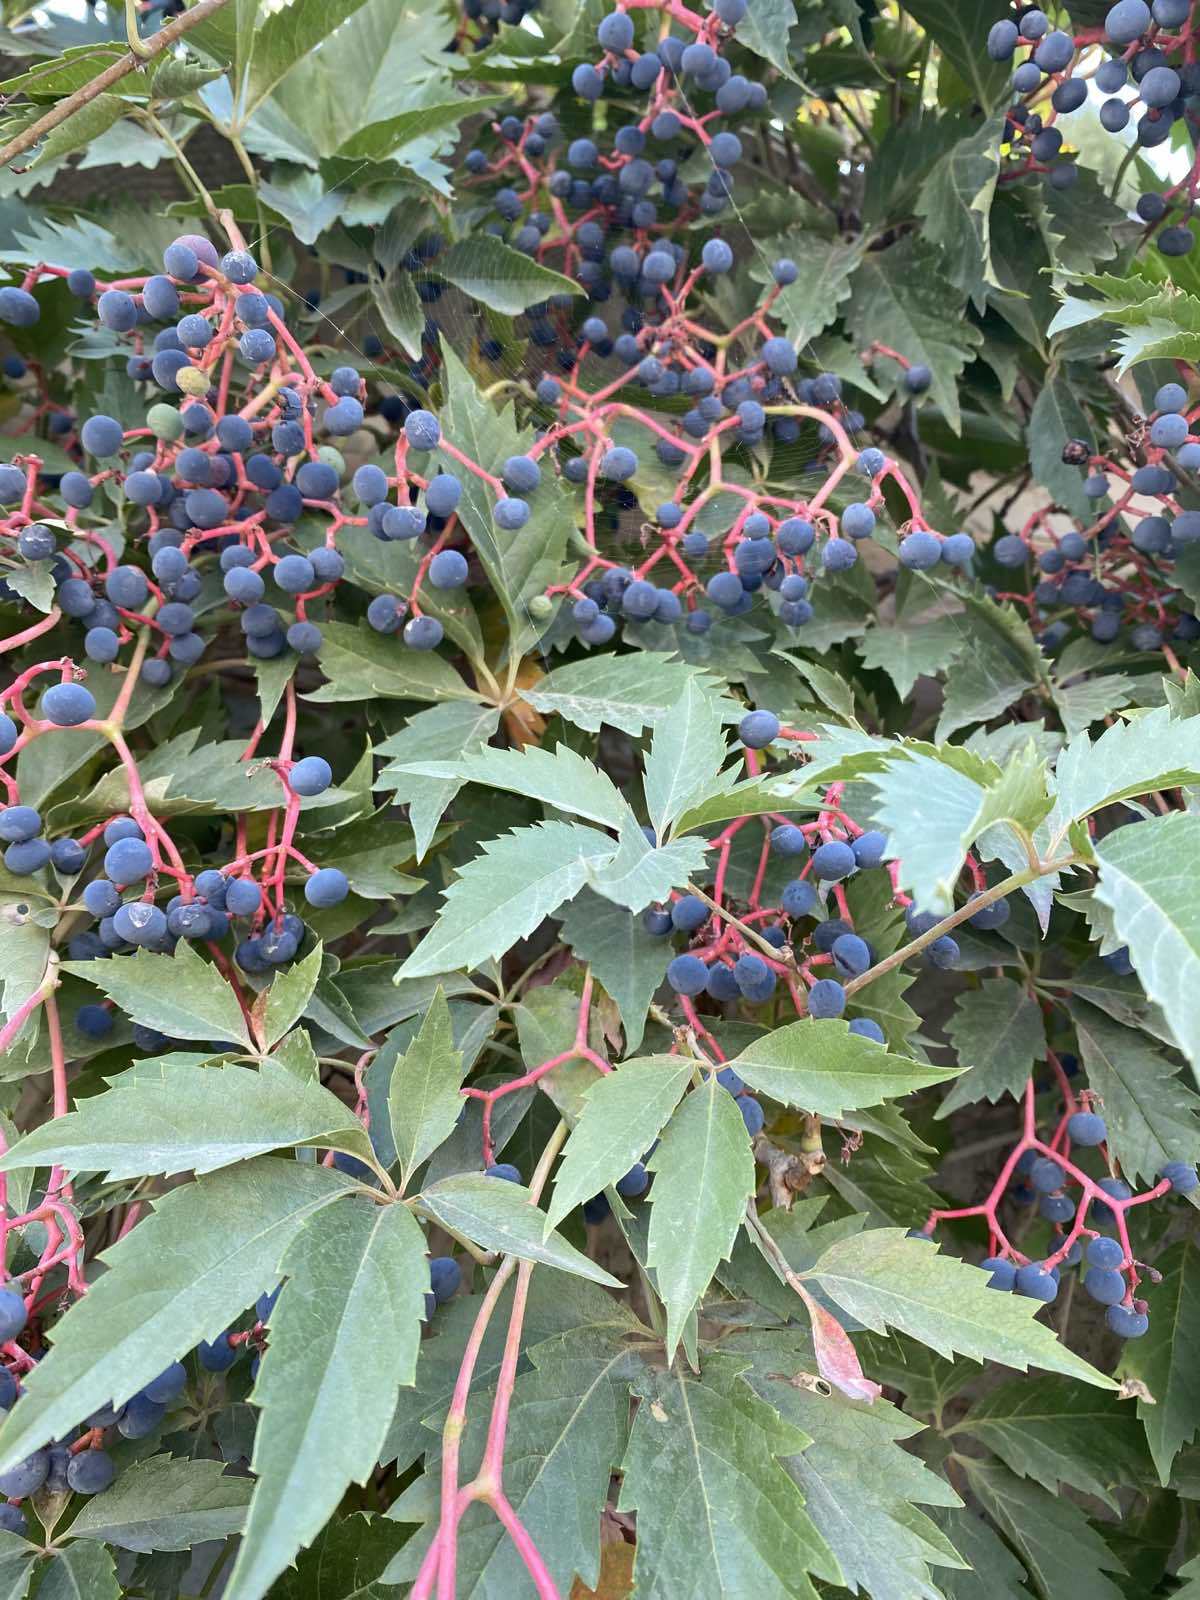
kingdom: Plantae
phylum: Tracheophyta
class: Magnoliopsida
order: Vitales
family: Vitaceae
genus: Parthenocissus
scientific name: Parthenocissus quinquefolia
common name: Virginia-creeper
